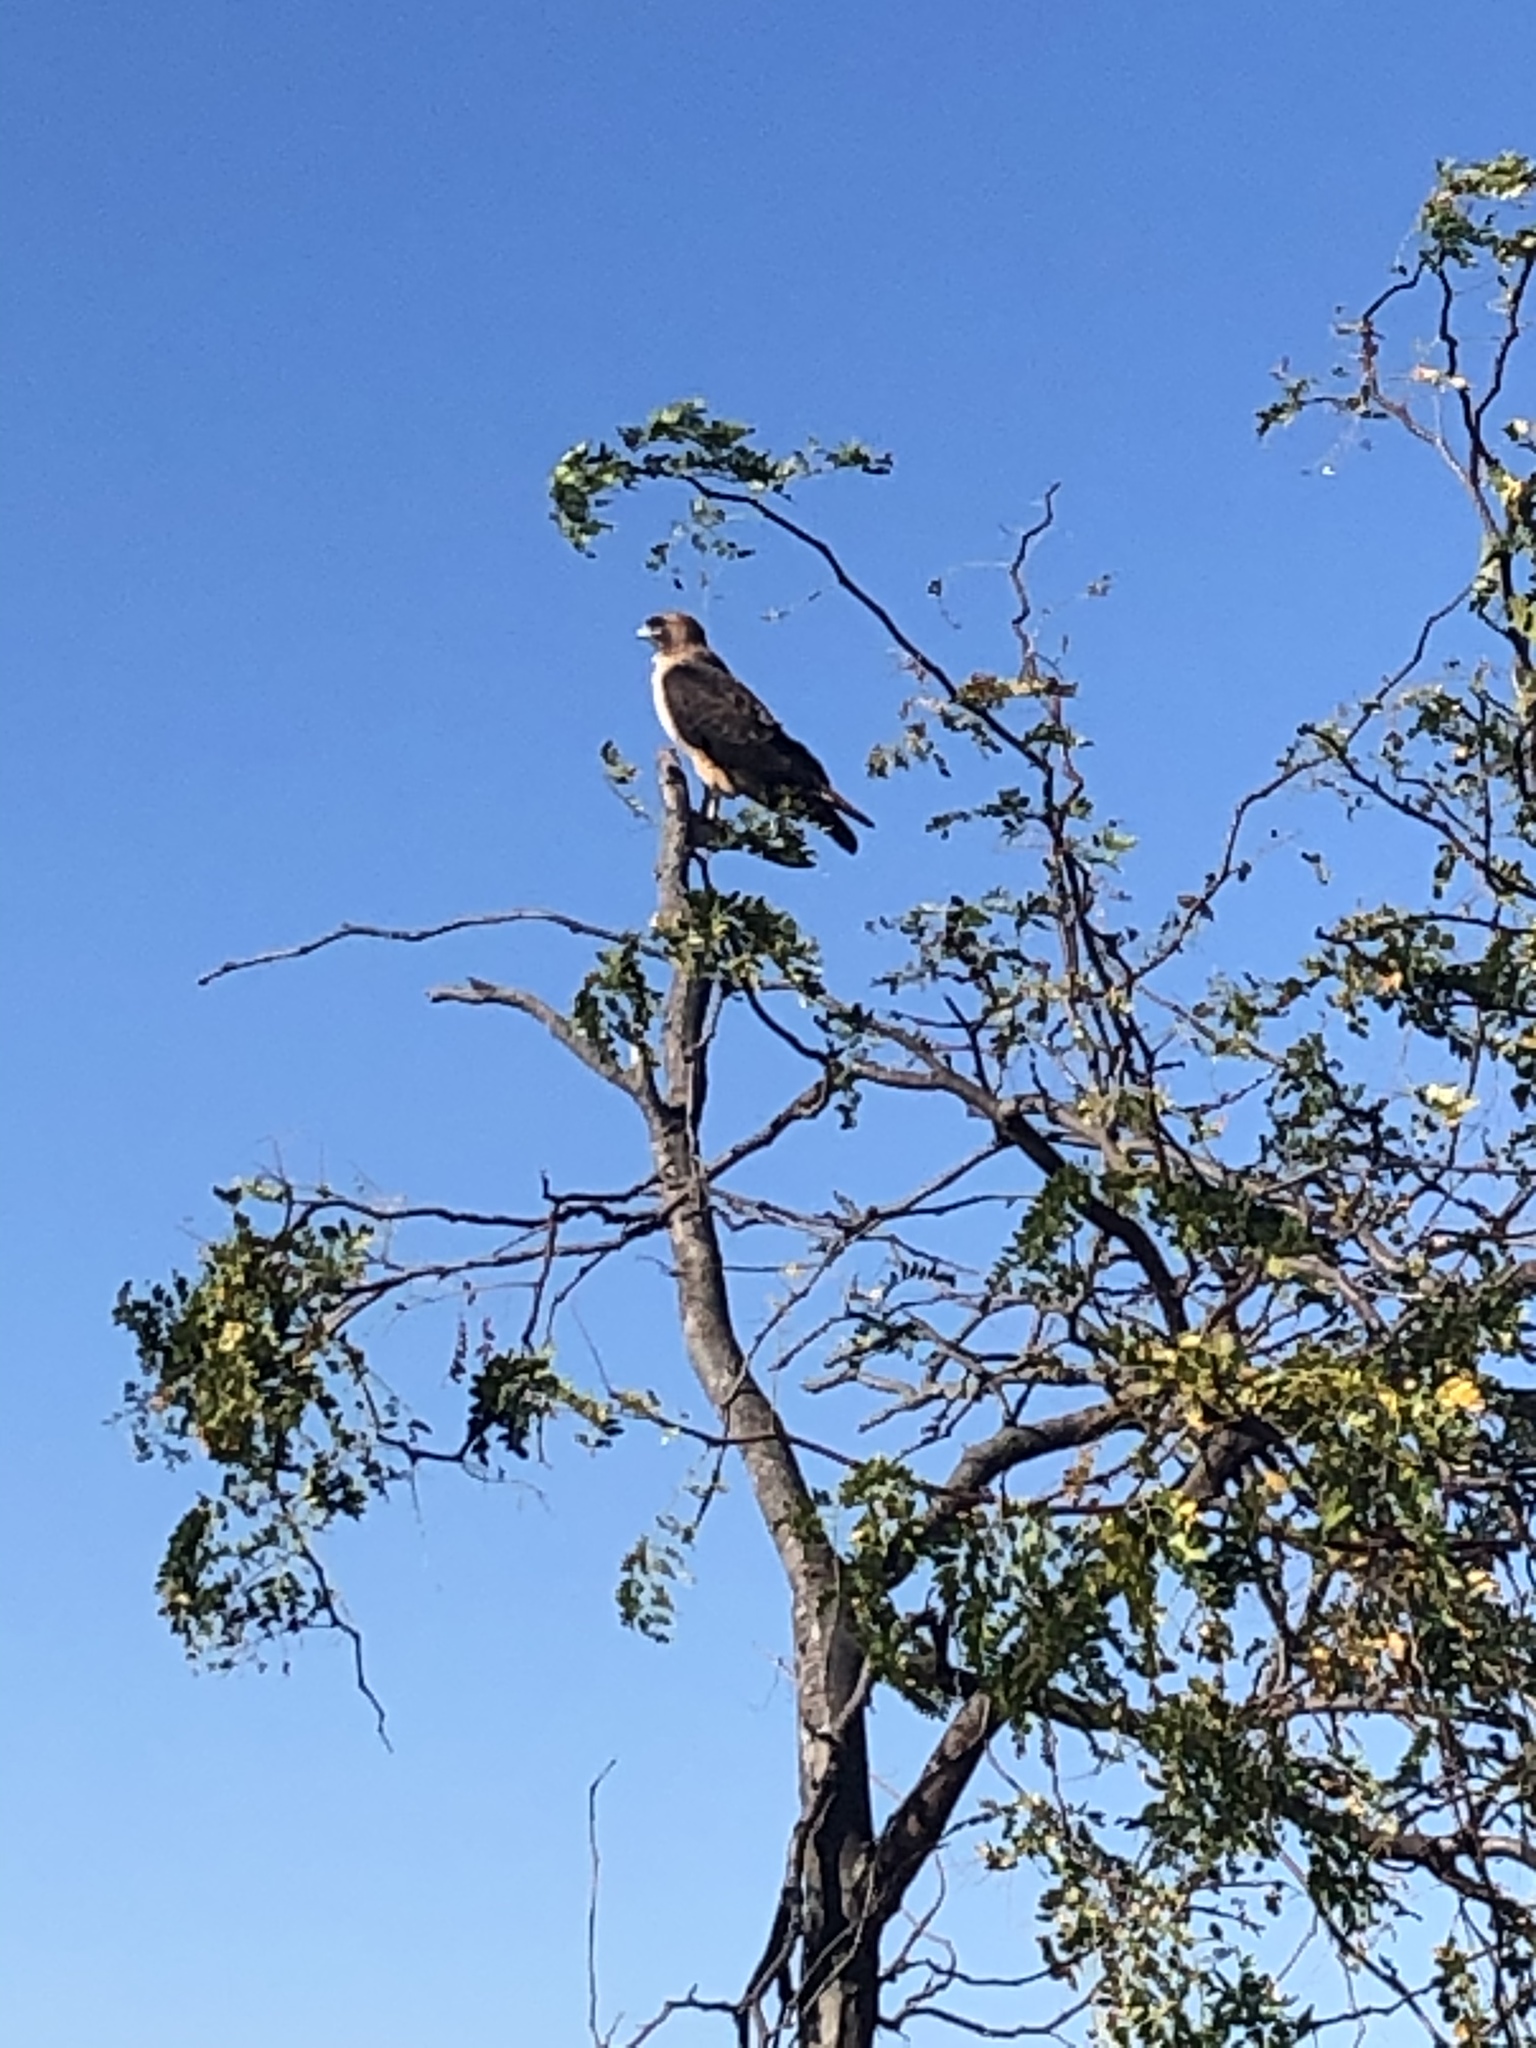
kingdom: Animalia
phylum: Chordata
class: Aves
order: Accipitriformes
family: Accipitridae
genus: Buteo
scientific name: Buteo jamaicensis
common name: Red-tailed hawk
